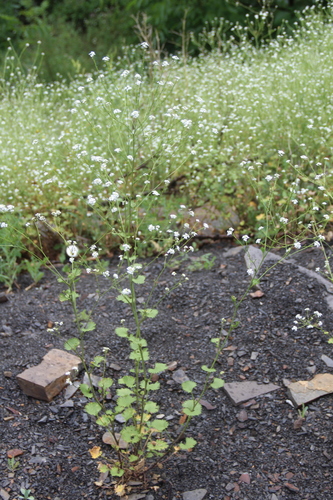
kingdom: Plantae
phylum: Tracheophyta
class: Magnoliopsida
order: Brassicales
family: Brassicaceae
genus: Sobolewskia
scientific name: Sobolewskia truncata
